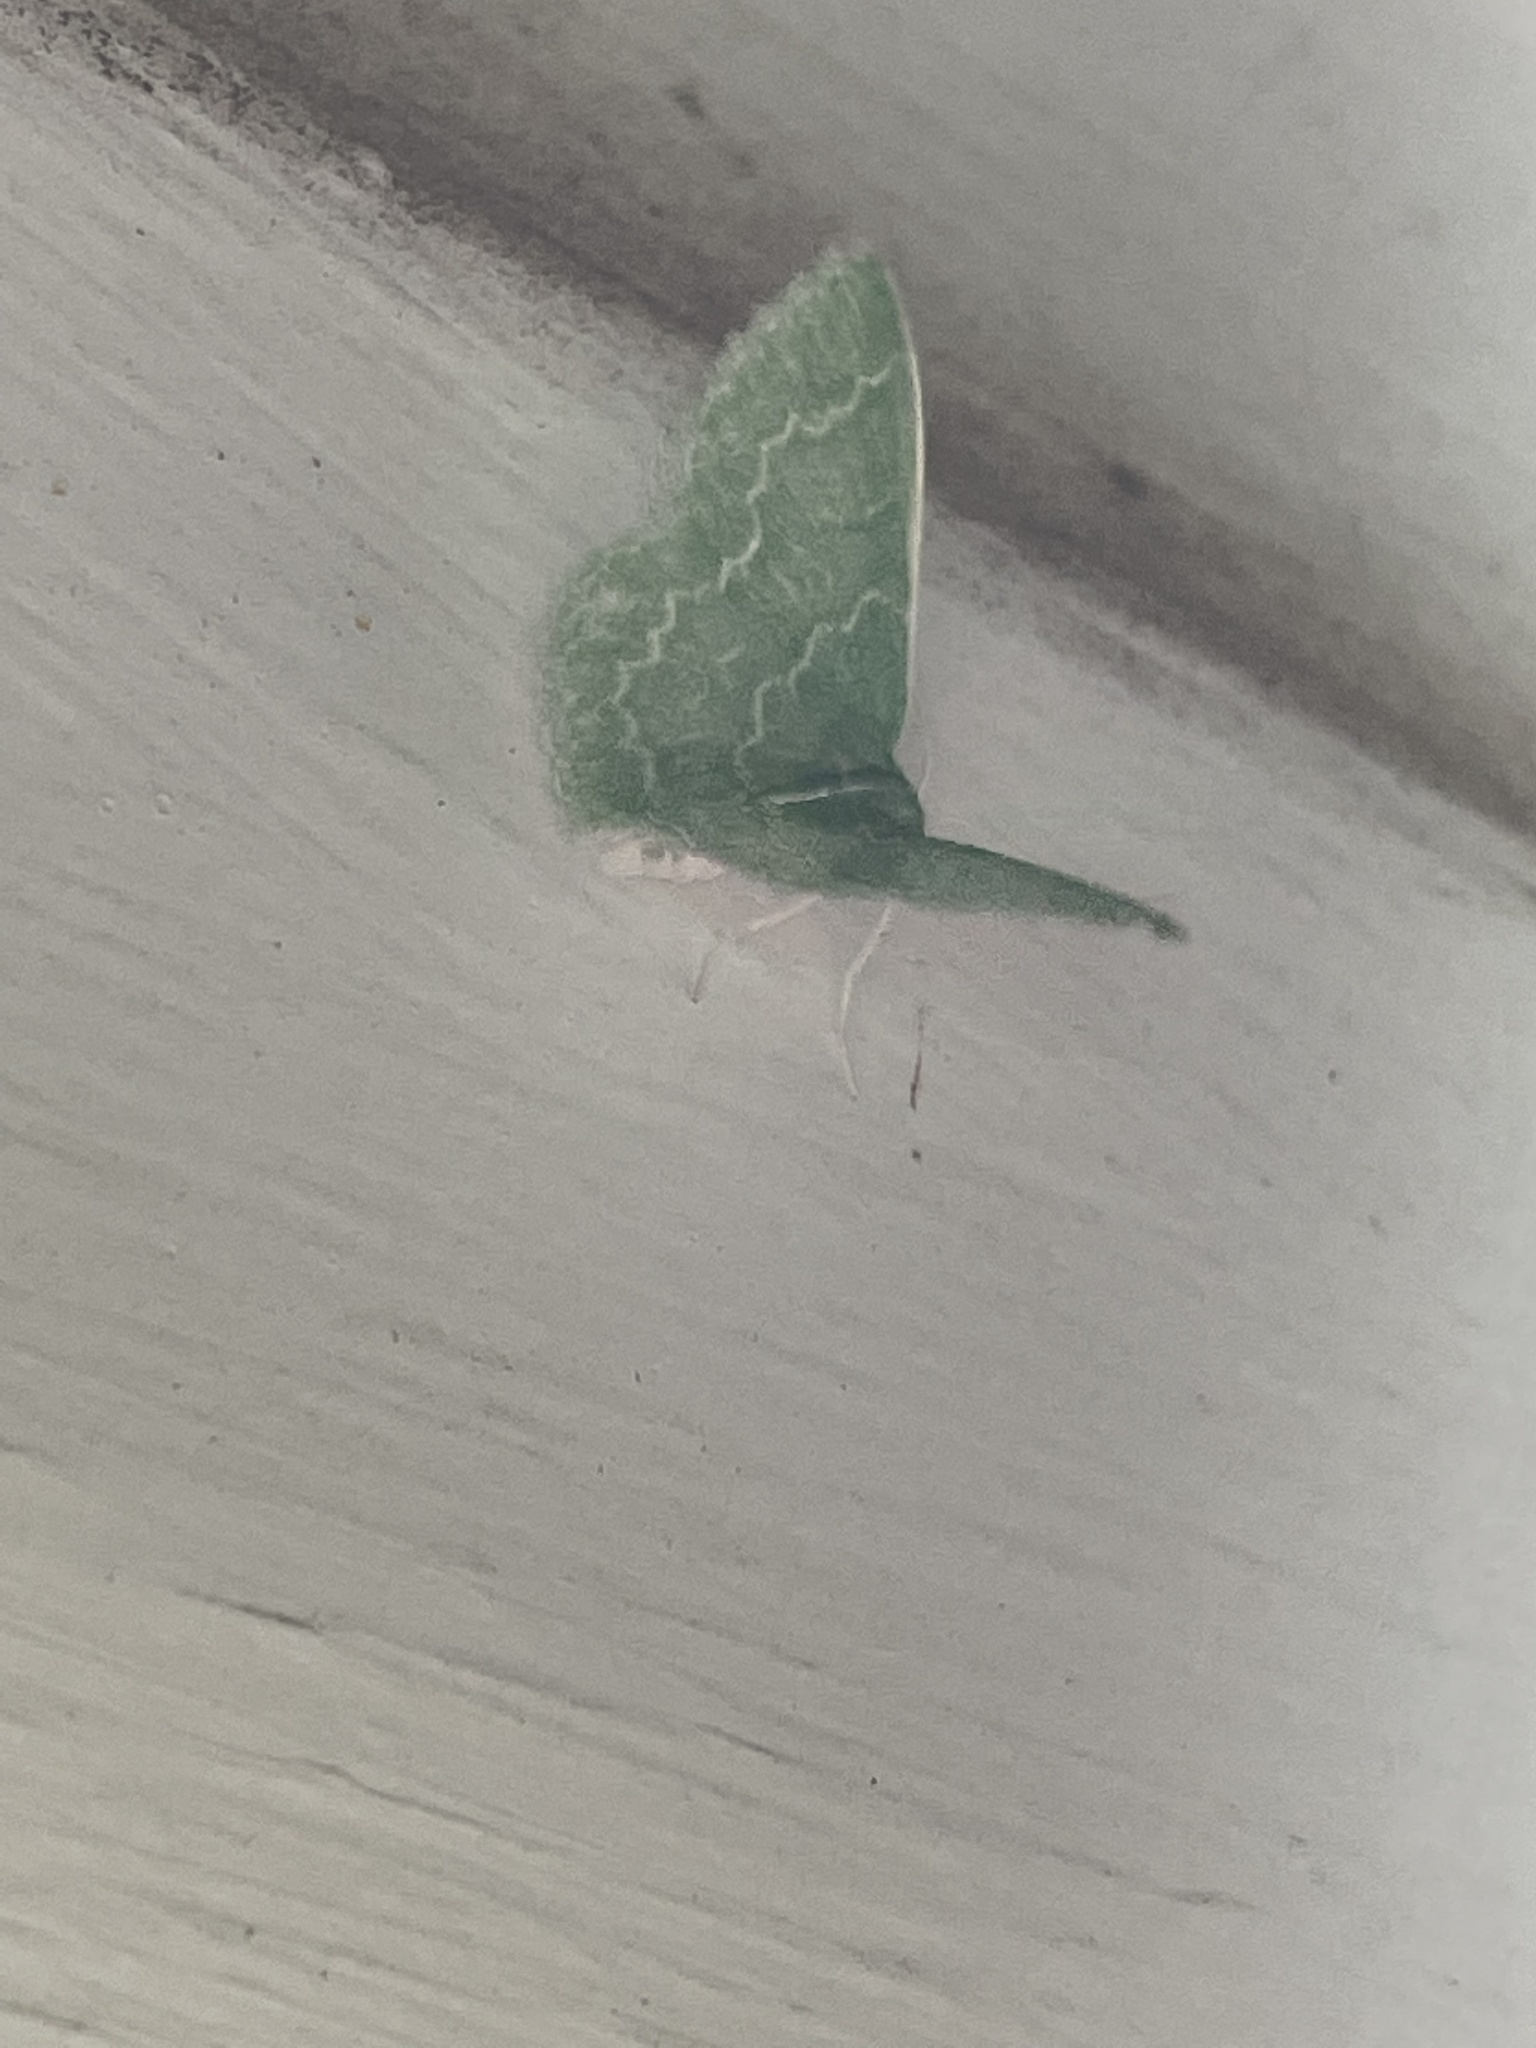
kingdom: Animalia
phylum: Arthropoda
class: Insecta
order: Lepidoptera
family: Geometridae
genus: Synchlora
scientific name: Synchlora frondaria
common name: Southern emerald
